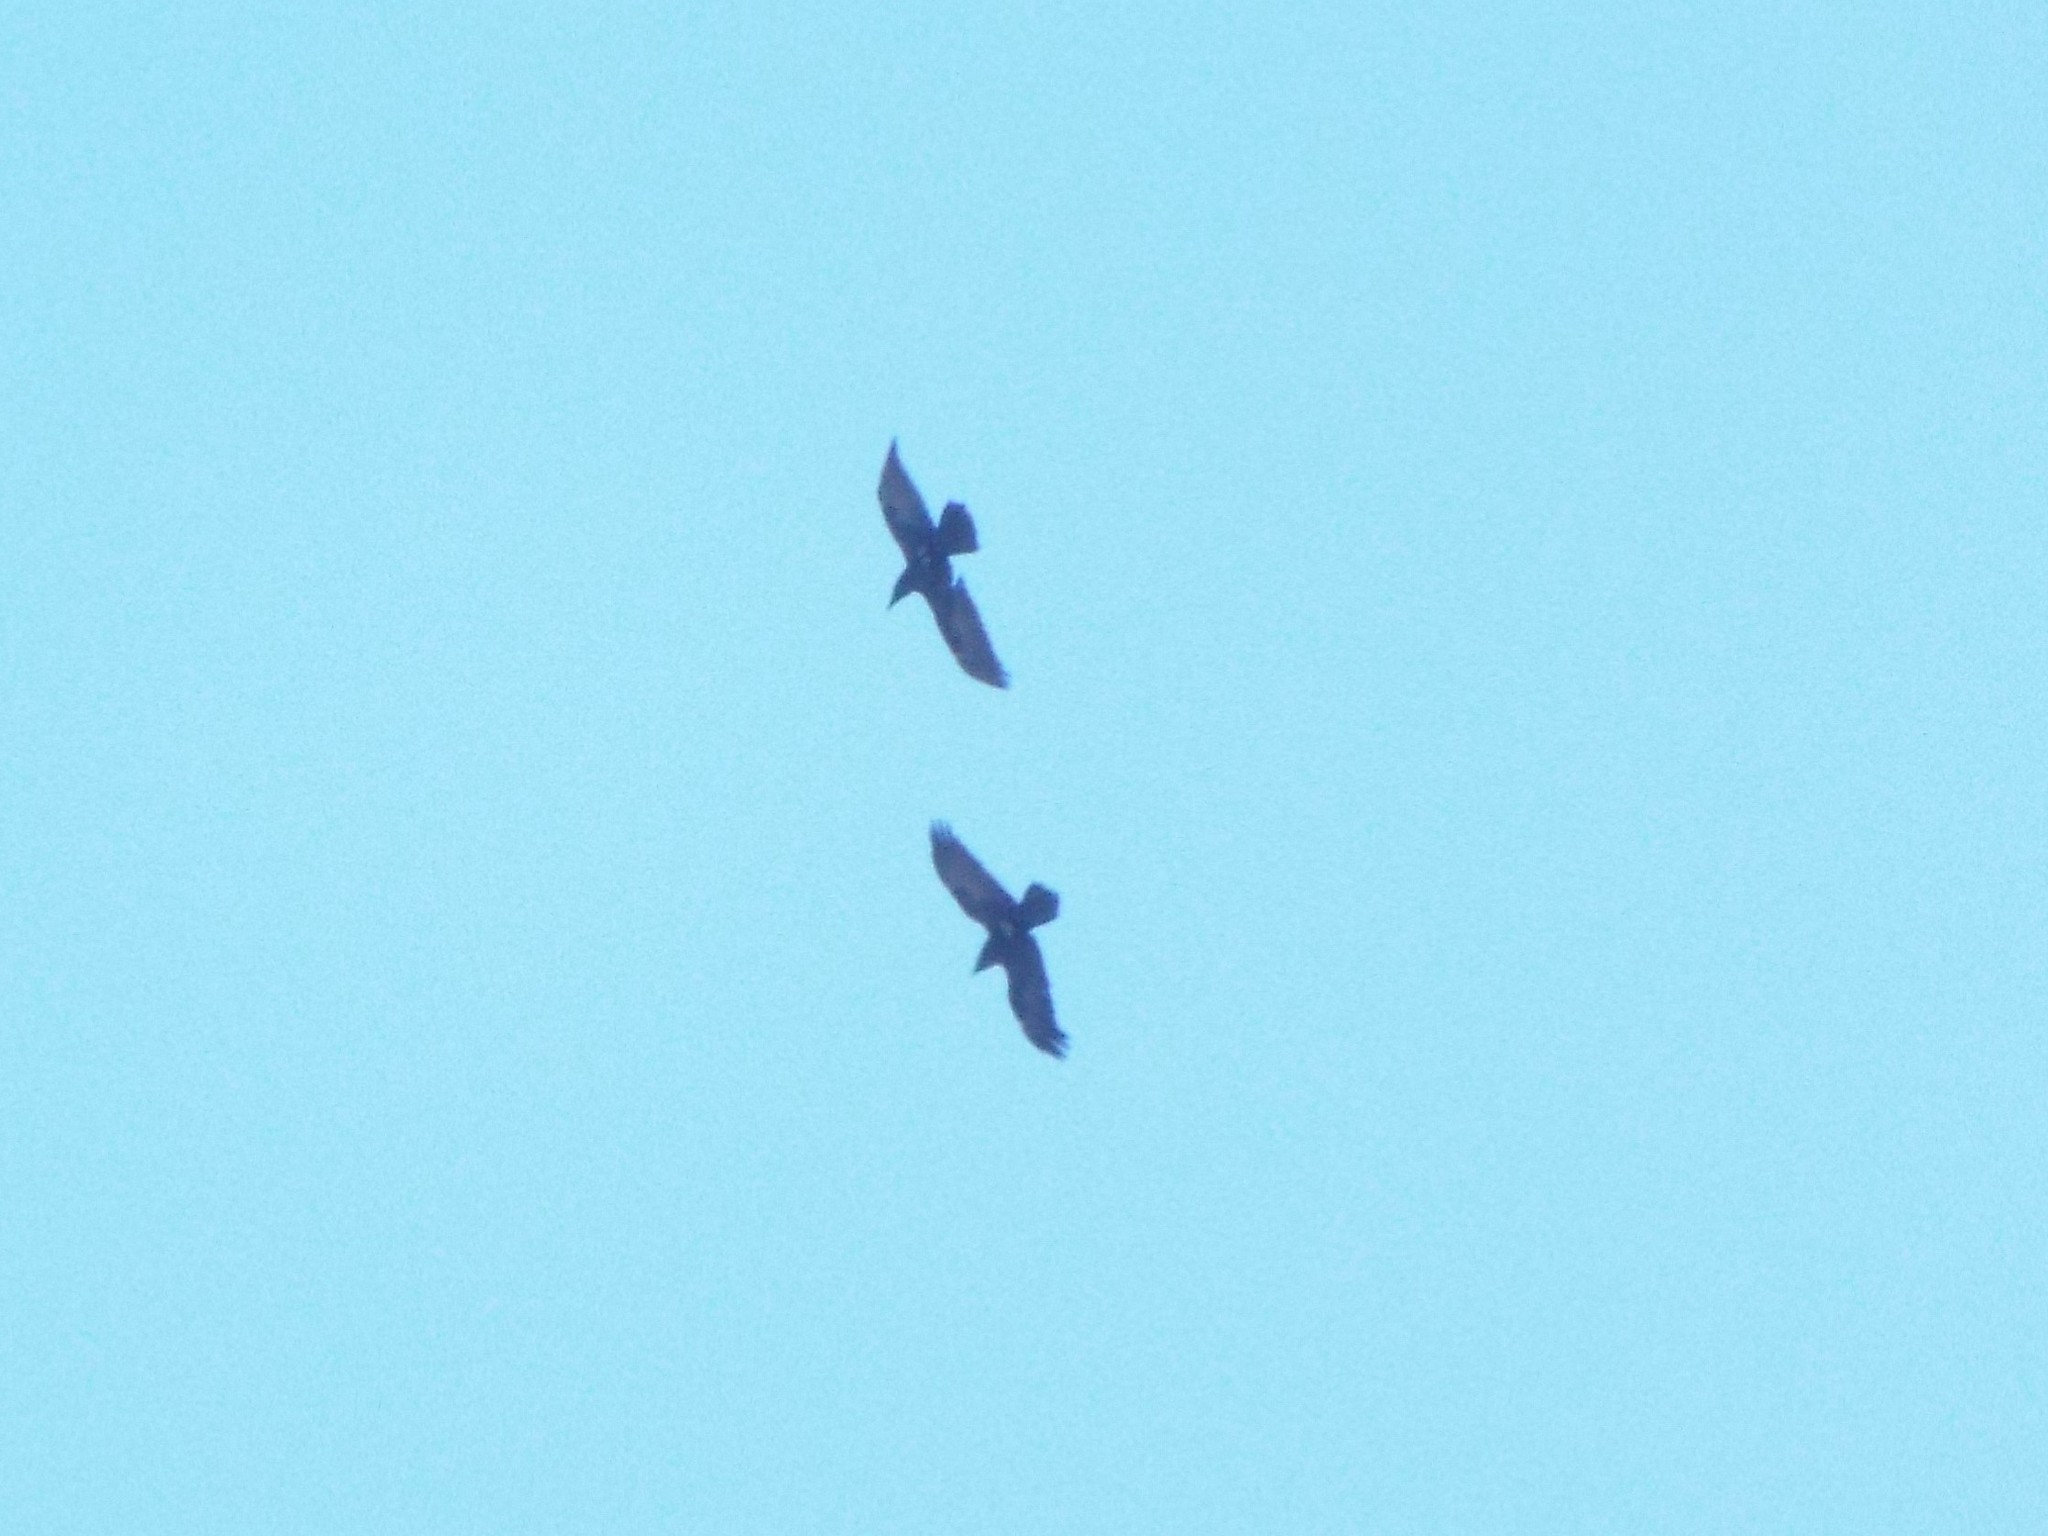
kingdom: Animalia
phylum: Chordata
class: Aves
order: Passeriformes
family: Corvidae
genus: Corvus
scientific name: Corvus corax
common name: Common raven
